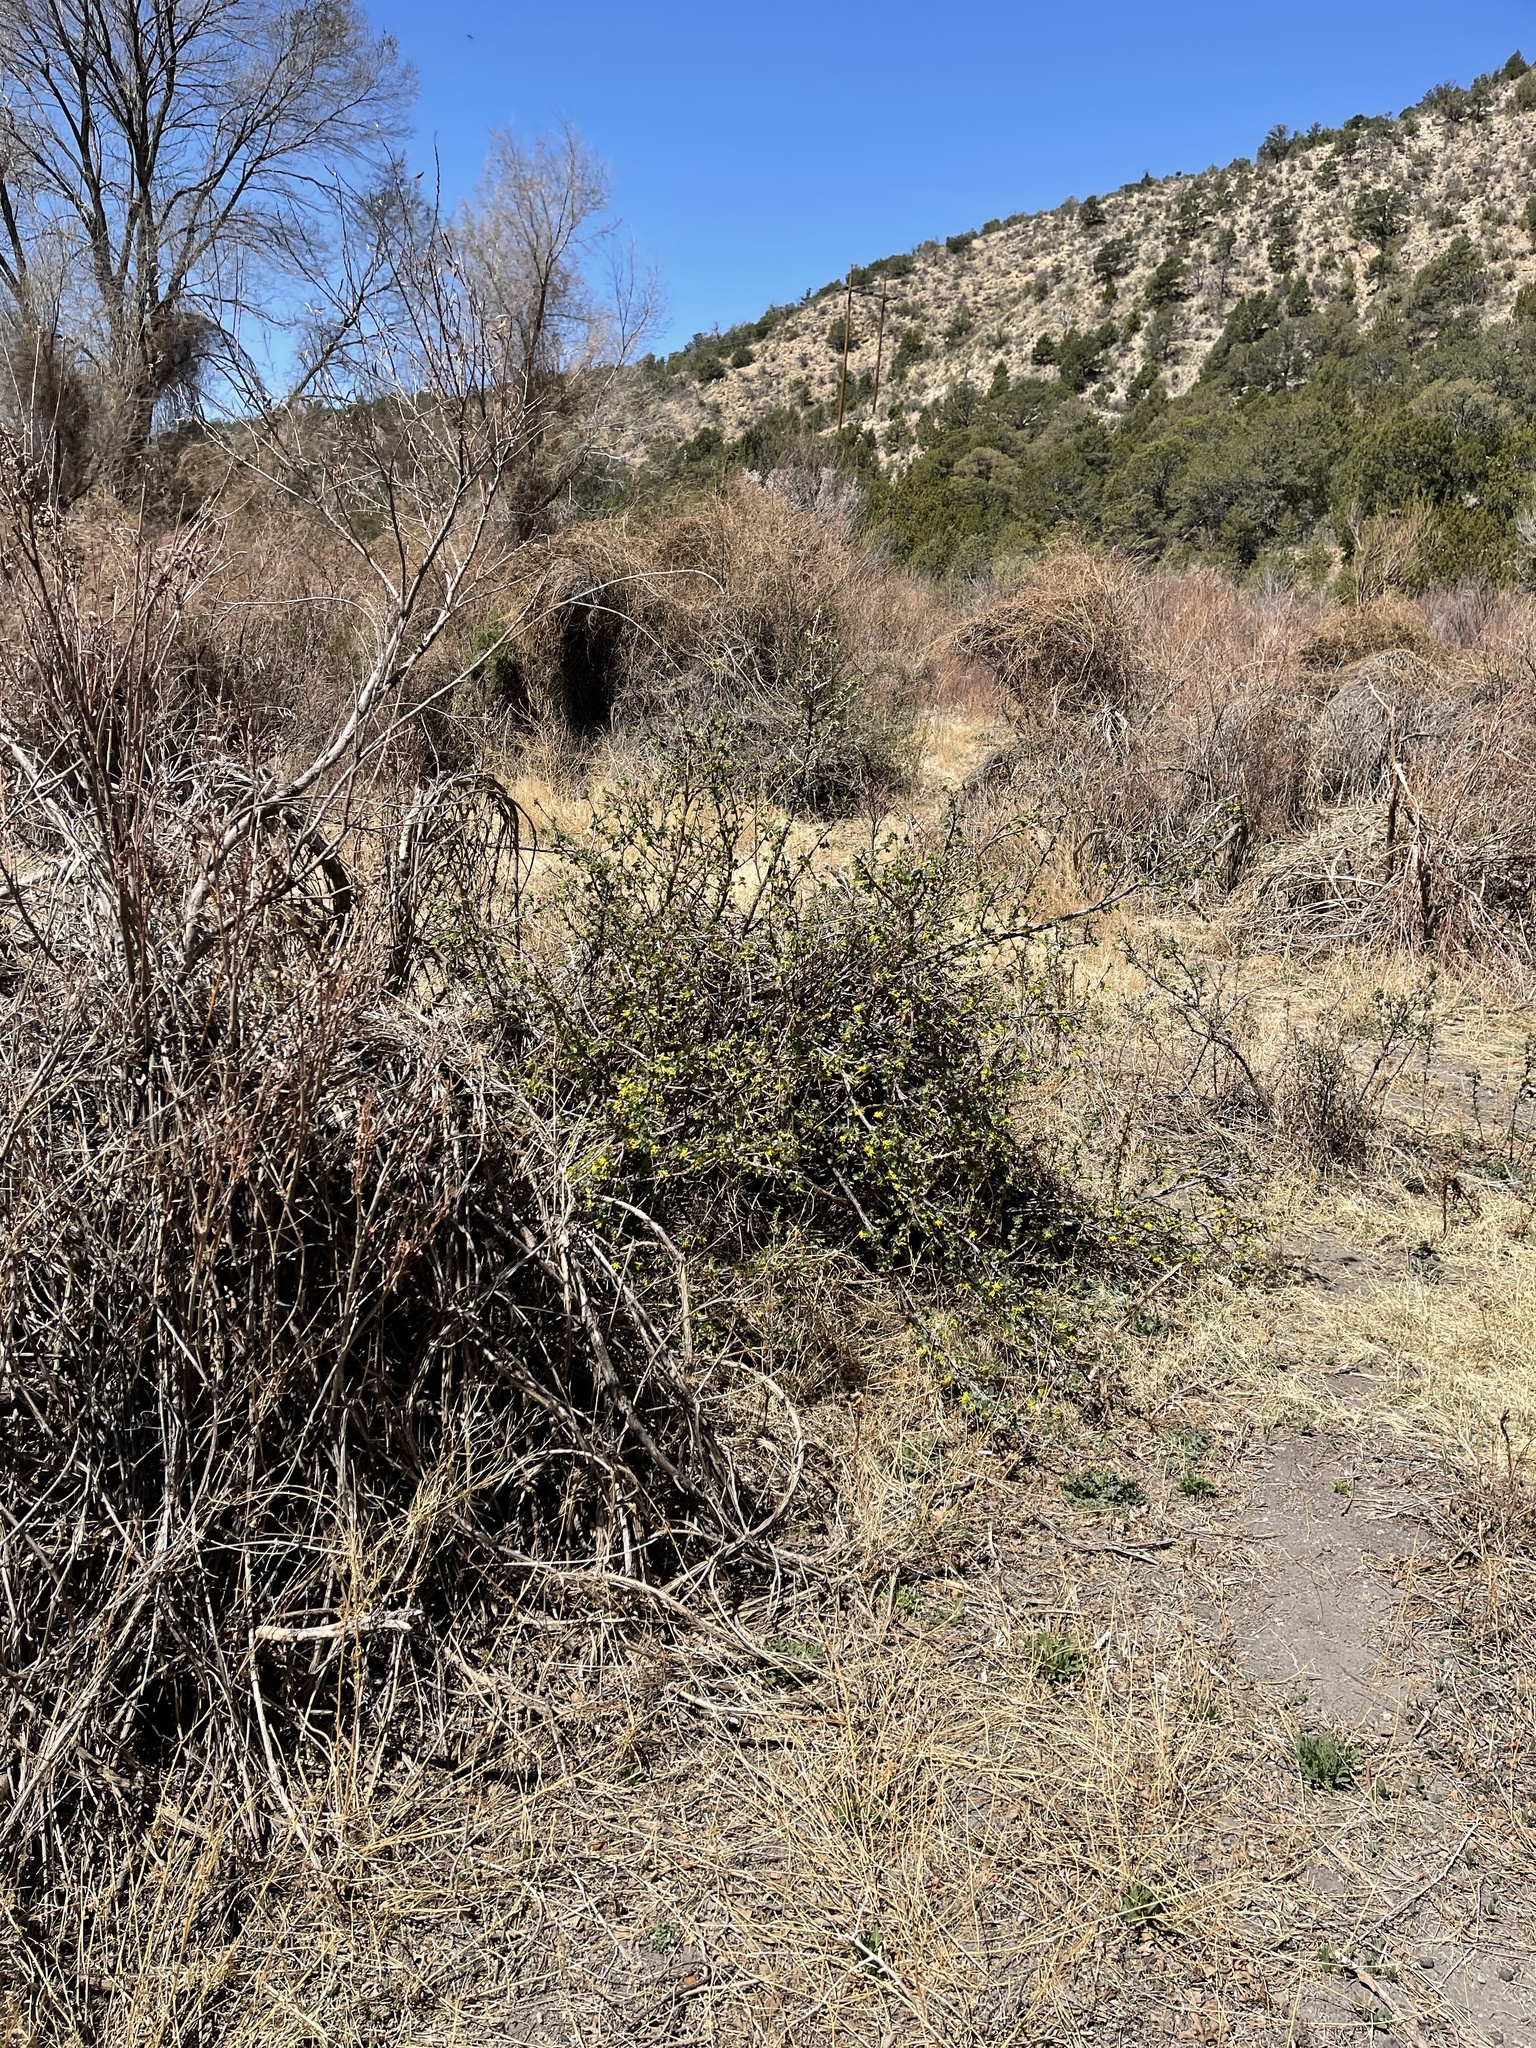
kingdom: Plantae
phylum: Tracheophyta
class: Magnoliopsida
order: Saxifragales
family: Grossulariaceae
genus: Ribes
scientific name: Ribes aureum
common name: Golden currant
